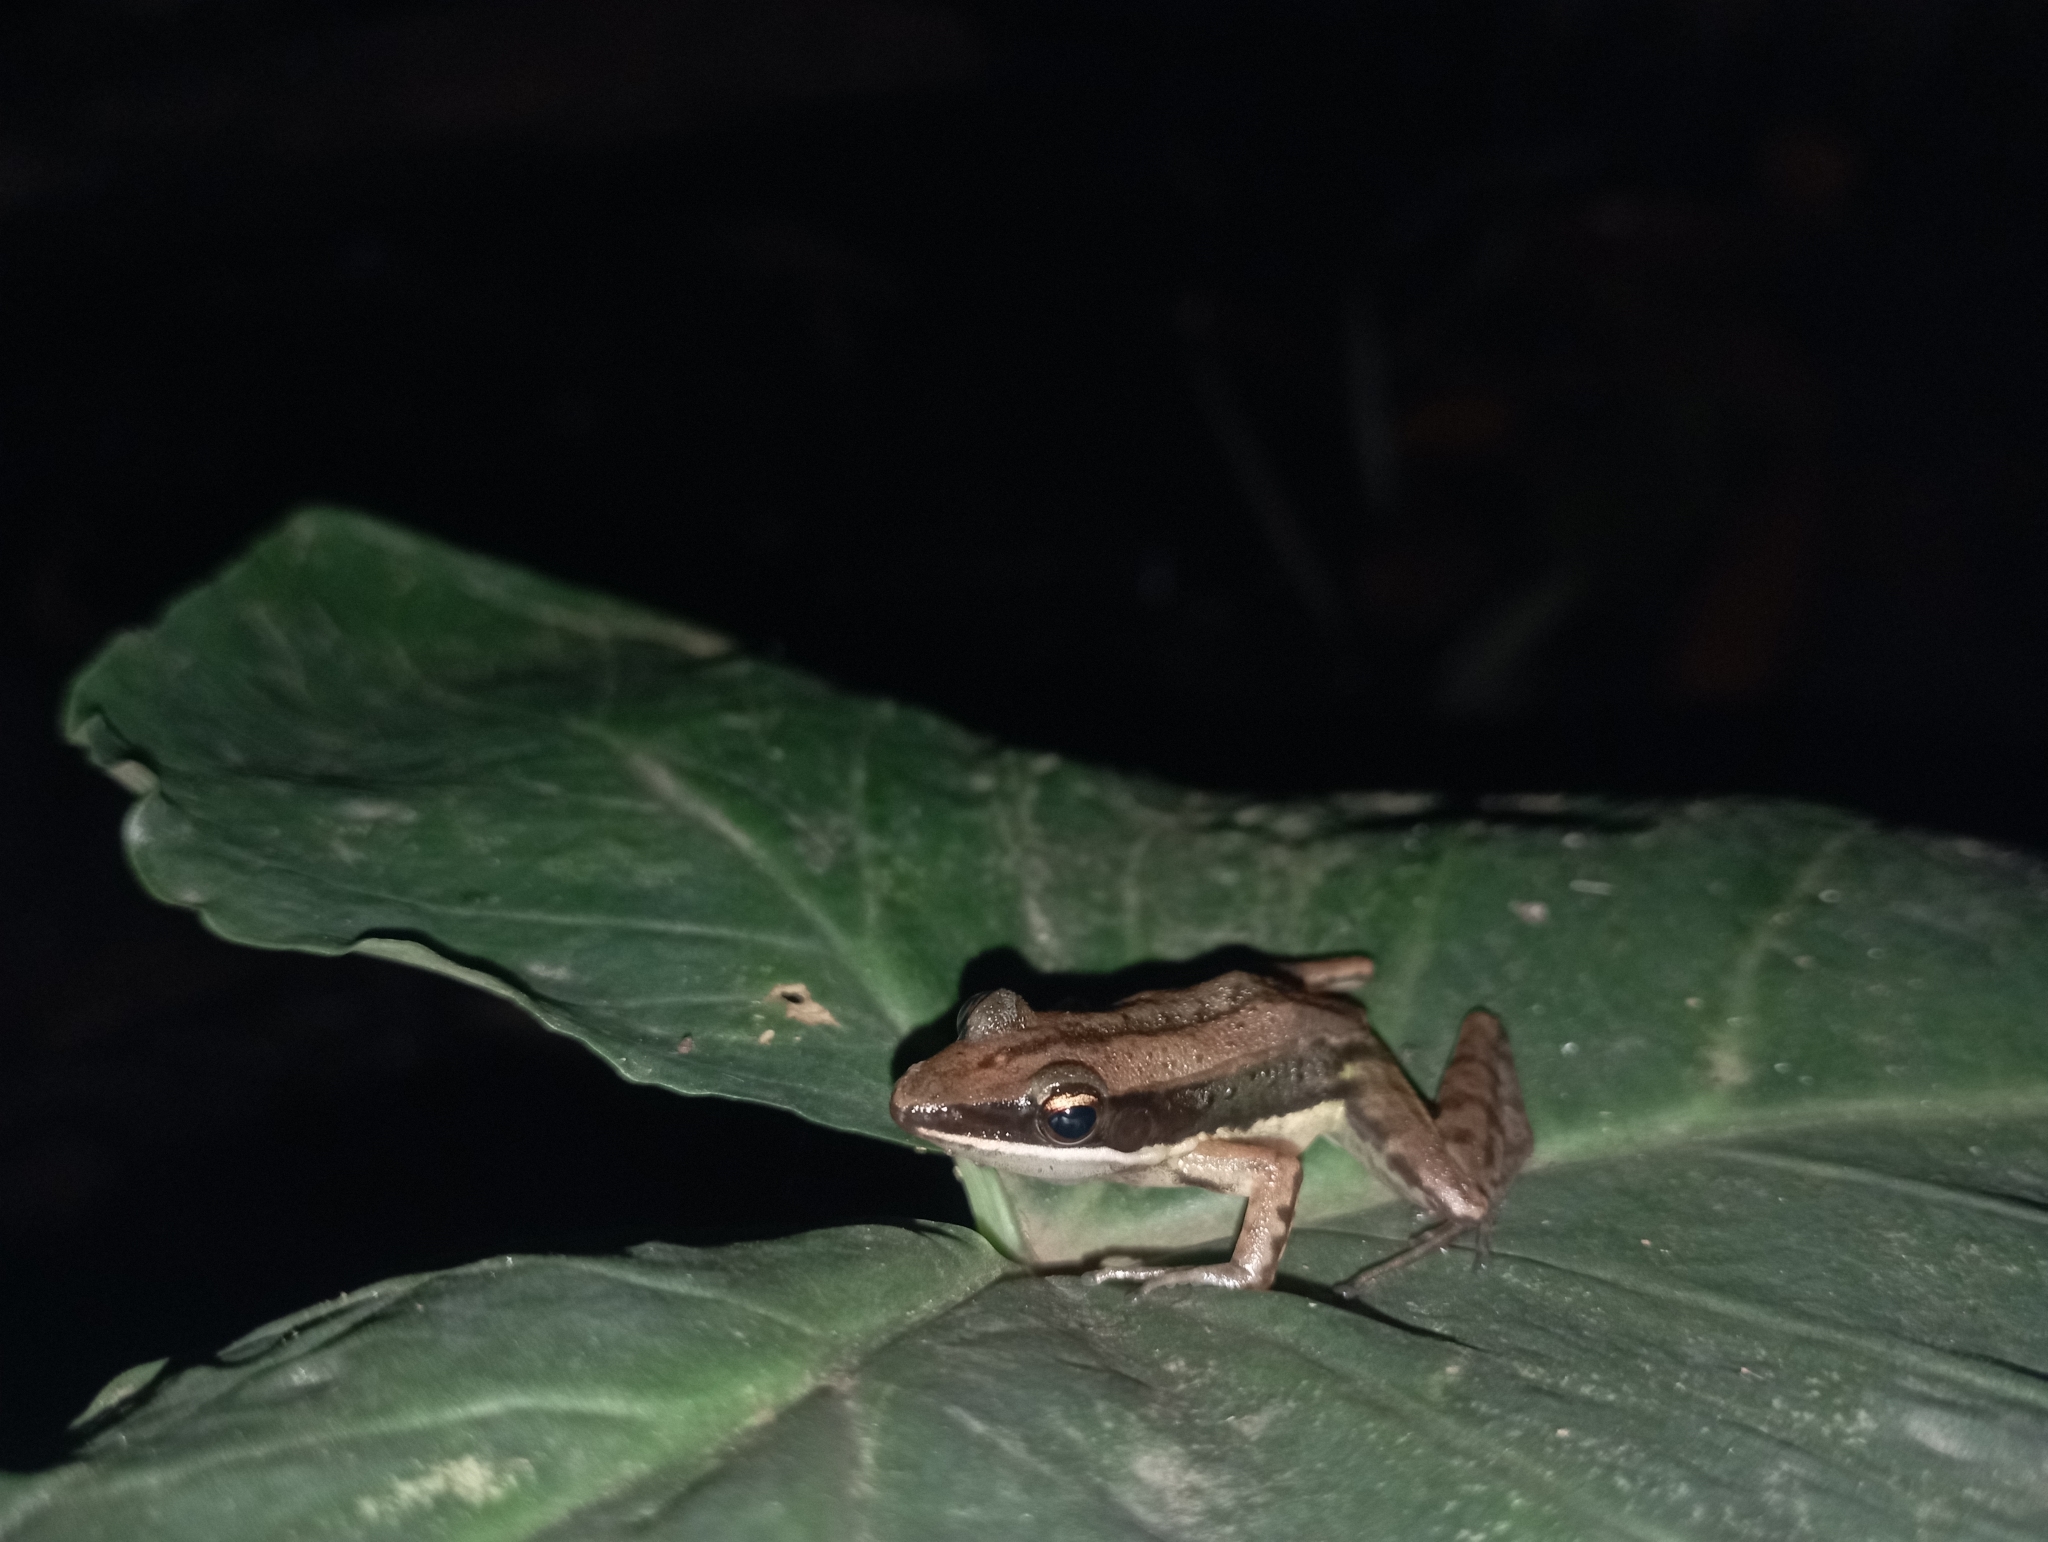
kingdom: Animalia
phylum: Chordata
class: Amphibia
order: Anura
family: Ranidae
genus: Bijurana
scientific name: Bijurana nicobariensis
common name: Cricket frog
